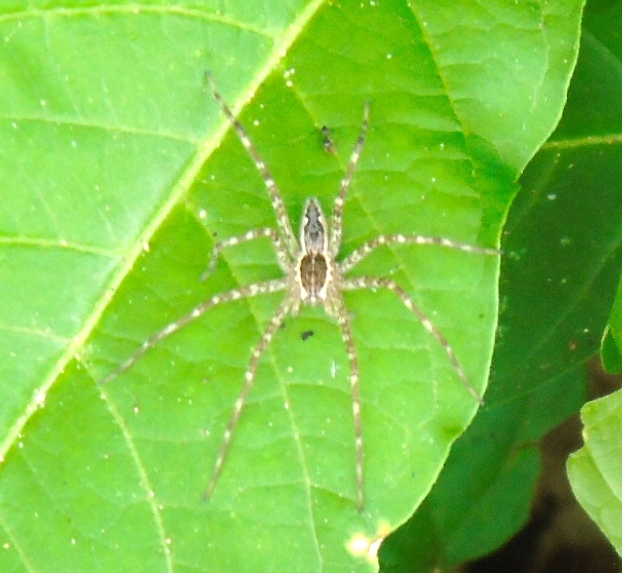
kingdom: Animalia
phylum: Arthropoda
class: Arachnida
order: Araneae
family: Pisauridae
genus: Tinus
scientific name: Tinus
